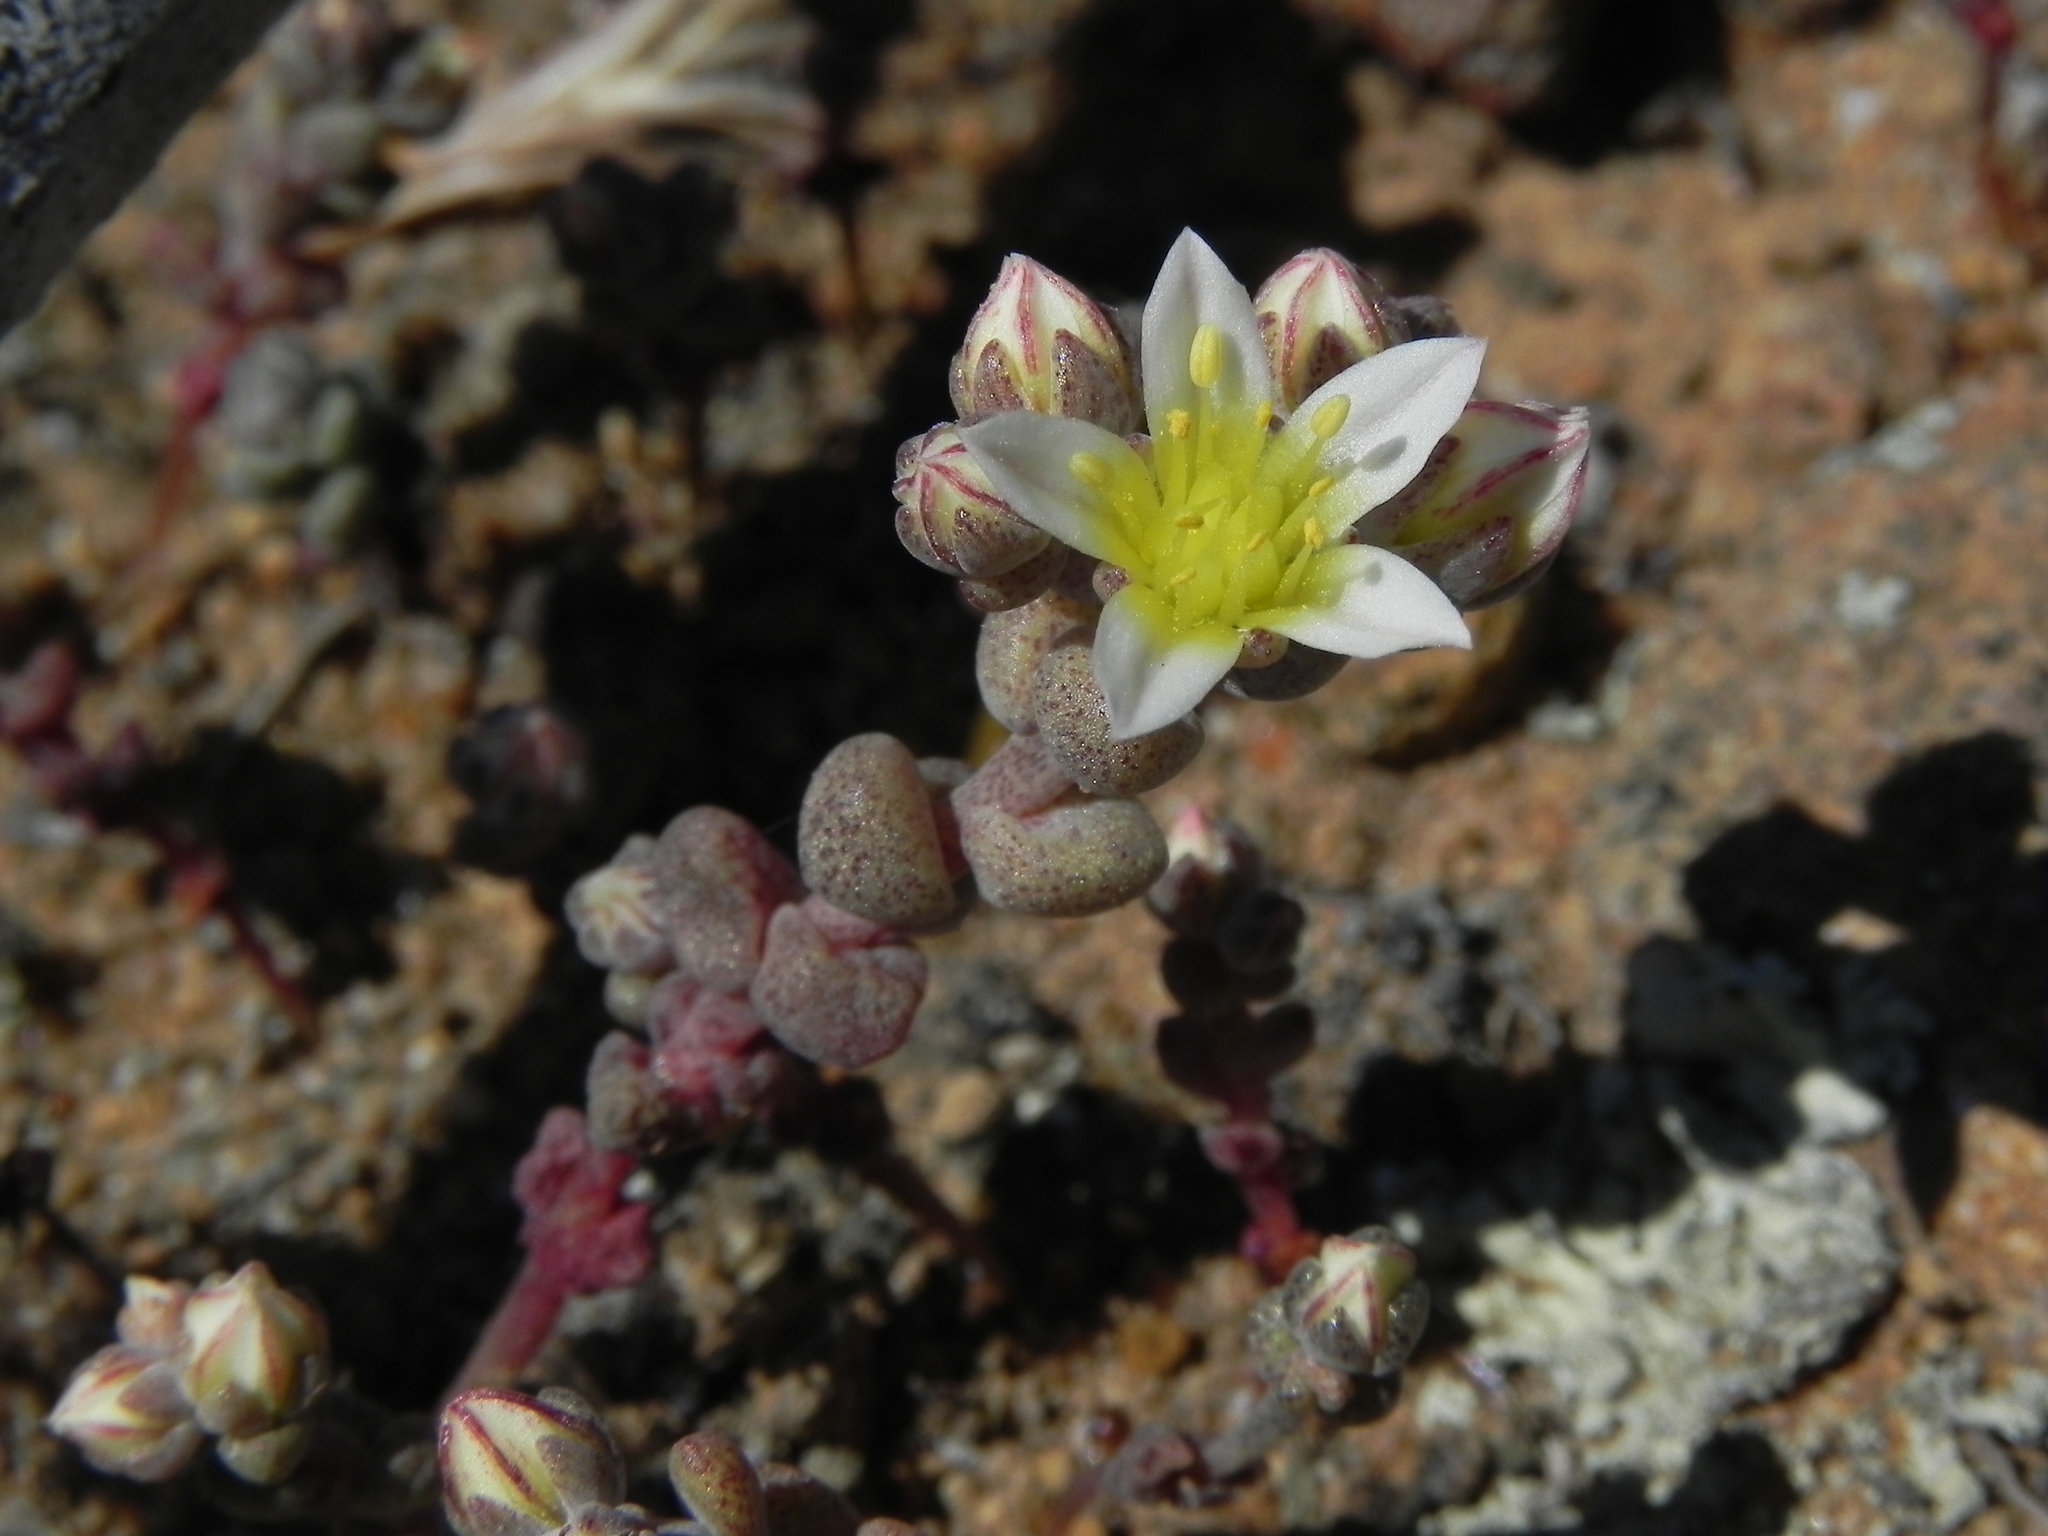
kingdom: Plantae
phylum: Tracheophyta
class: Magnoliopsida
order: Saxifragales
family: Crassulaceae
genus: Dudleya
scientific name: Dudleya blochmaniae
